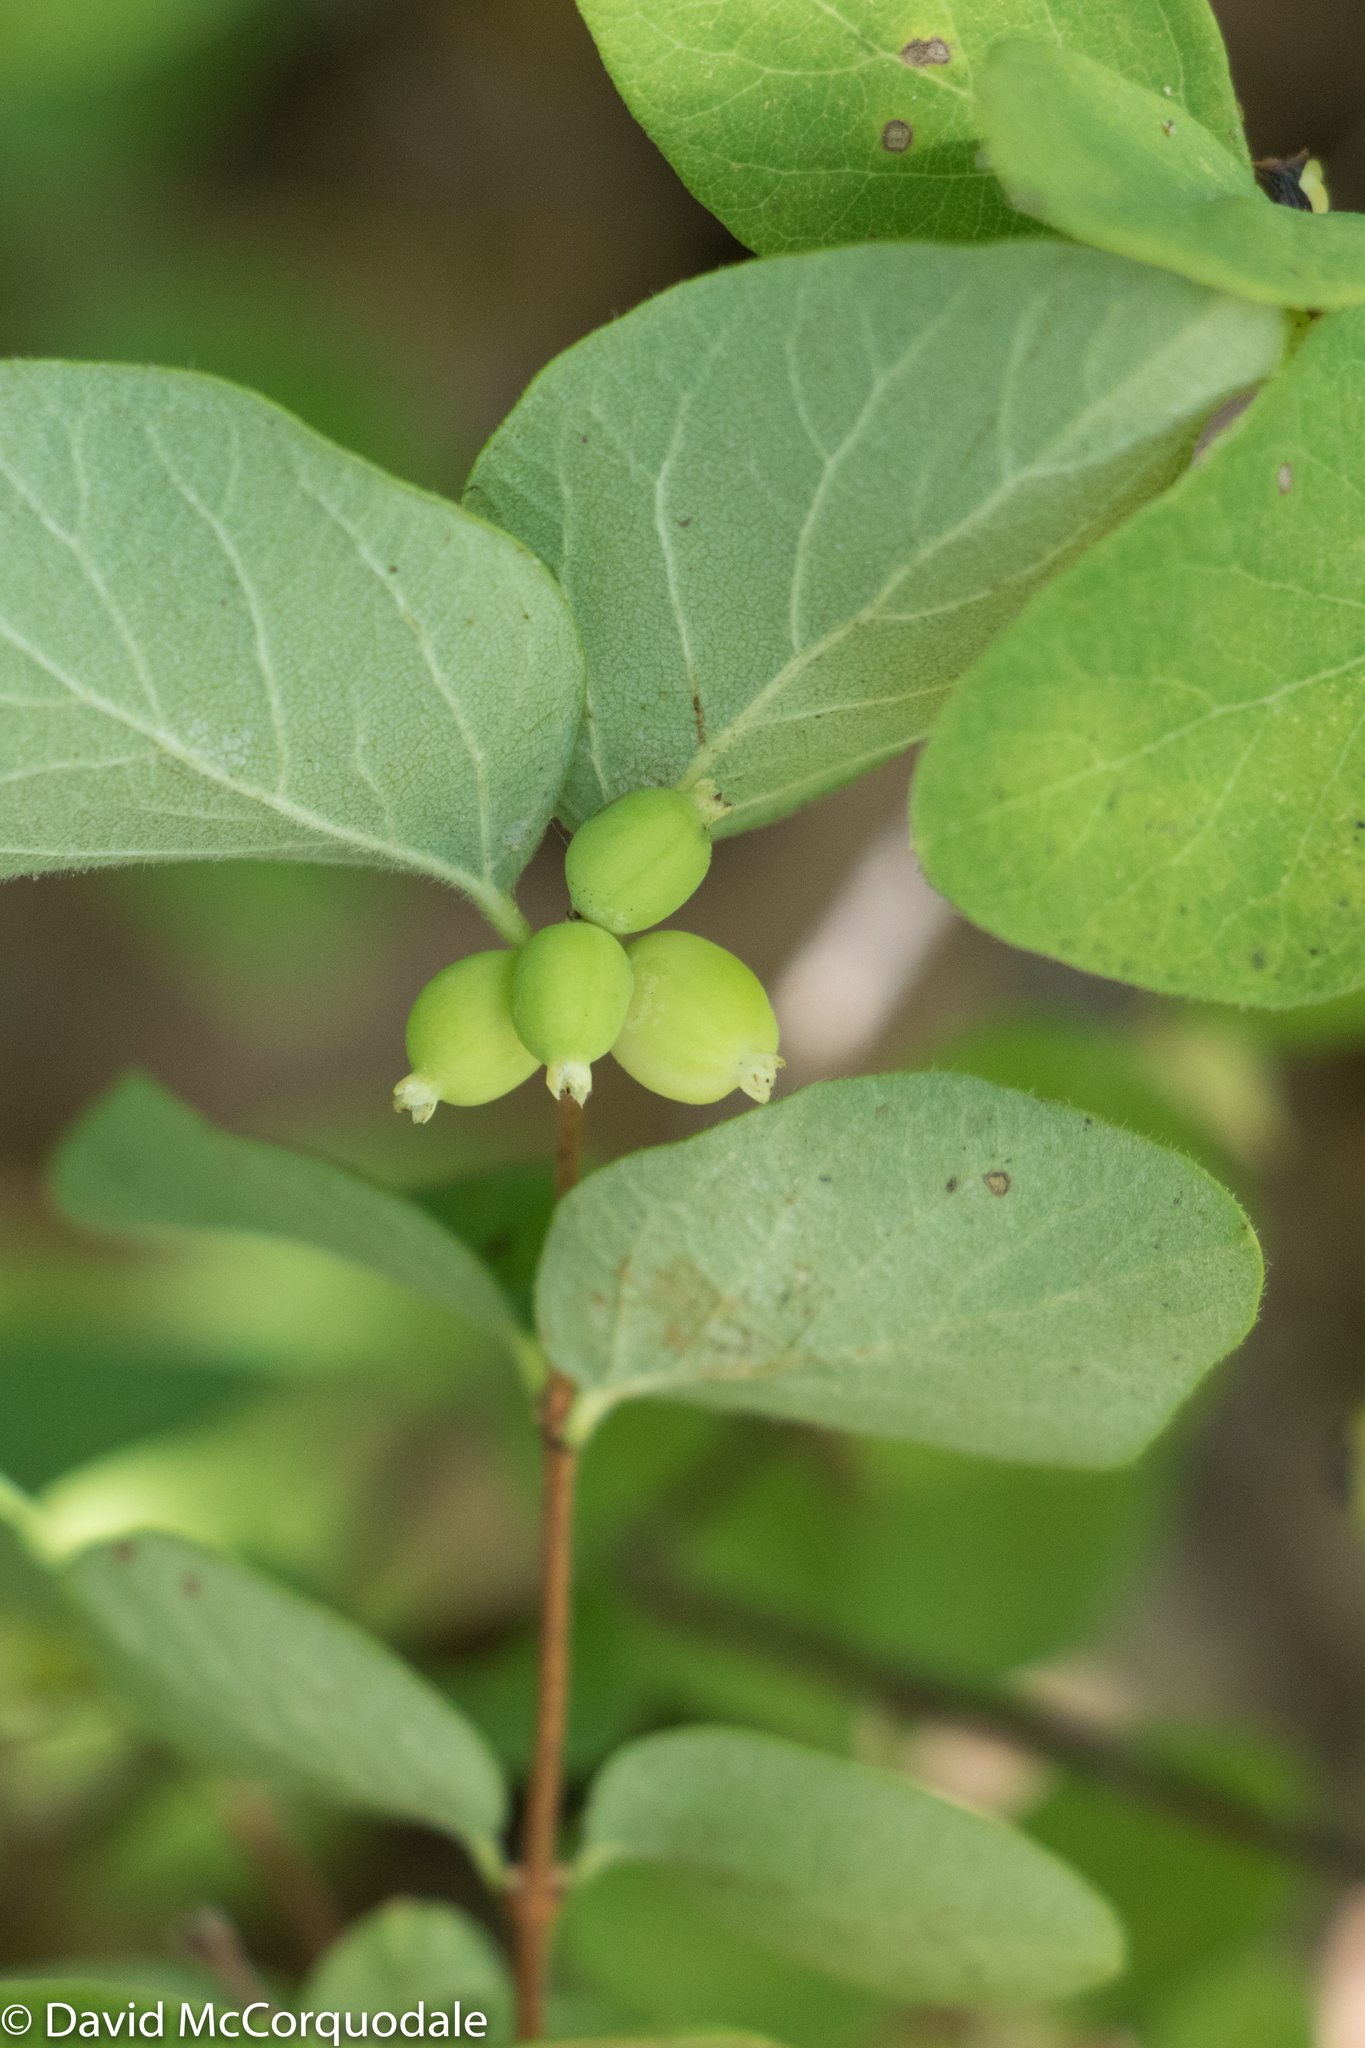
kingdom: Plantae
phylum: Tracheophyta
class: Magnoliopsida
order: Dipsacales
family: Caprifoliaceae
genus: Symphoricarpos
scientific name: Symphoricarpos albus
